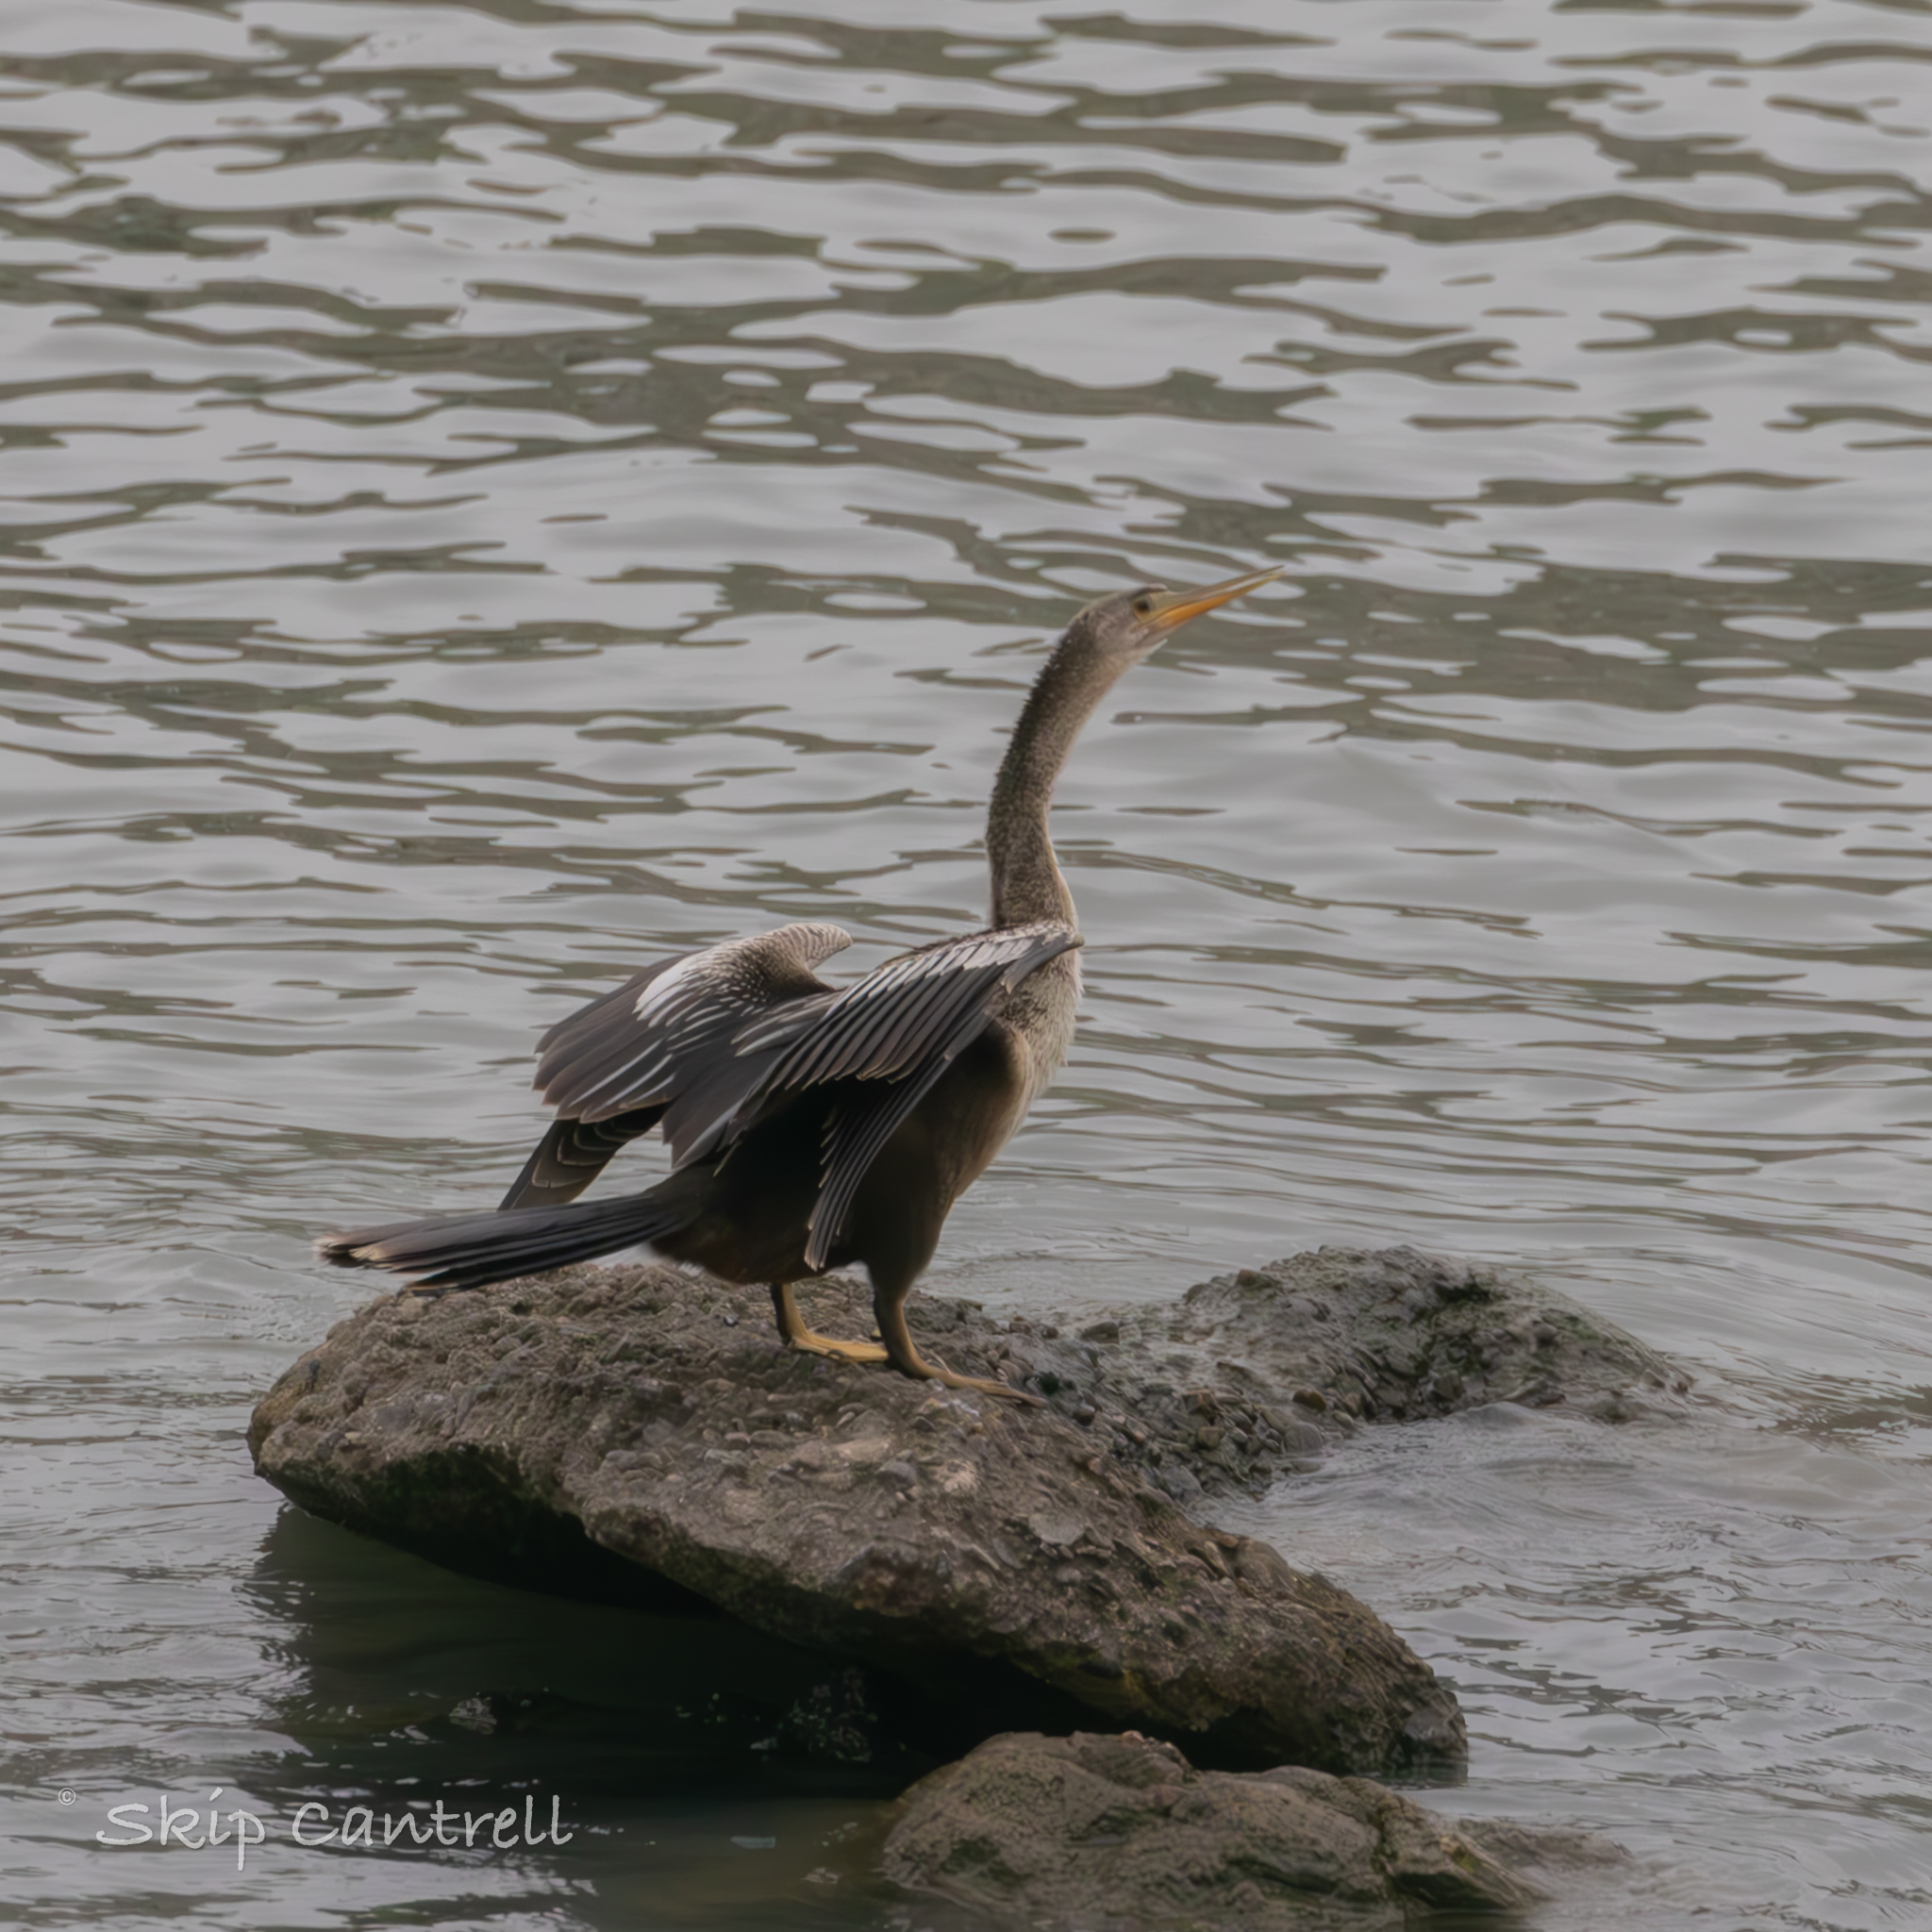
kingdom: Animalia
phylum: Chordata
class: Aves
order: Suliformes
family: Anhingidae
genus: Anhinga
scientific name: Anhinga anhinga
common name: Anhinga
